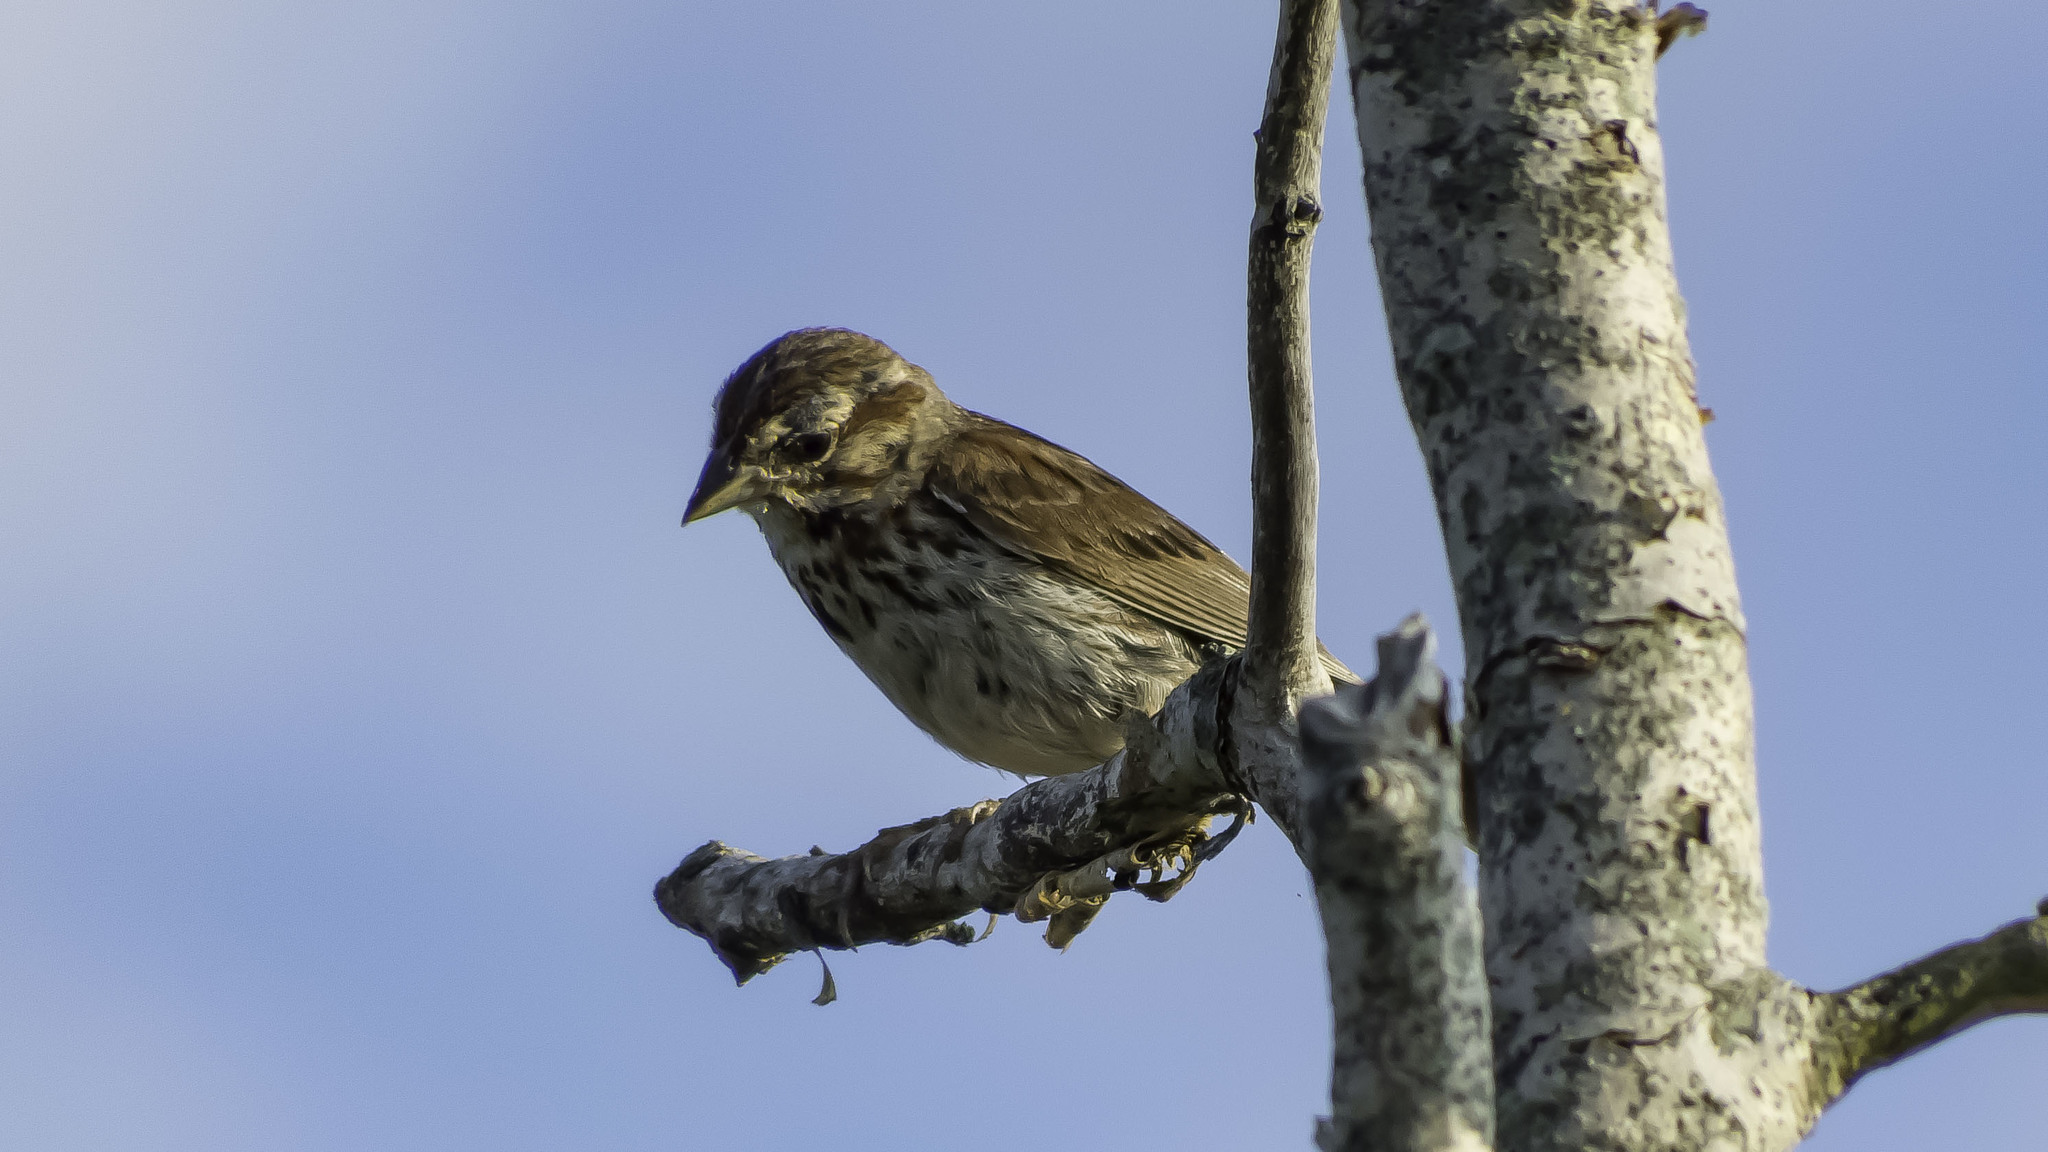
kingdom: Animalia
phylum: Chordata
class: Aves
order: Passeriformes
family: Passerellidae
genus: Melospiza
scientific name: Melospiza melodia
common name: Song sparrow
